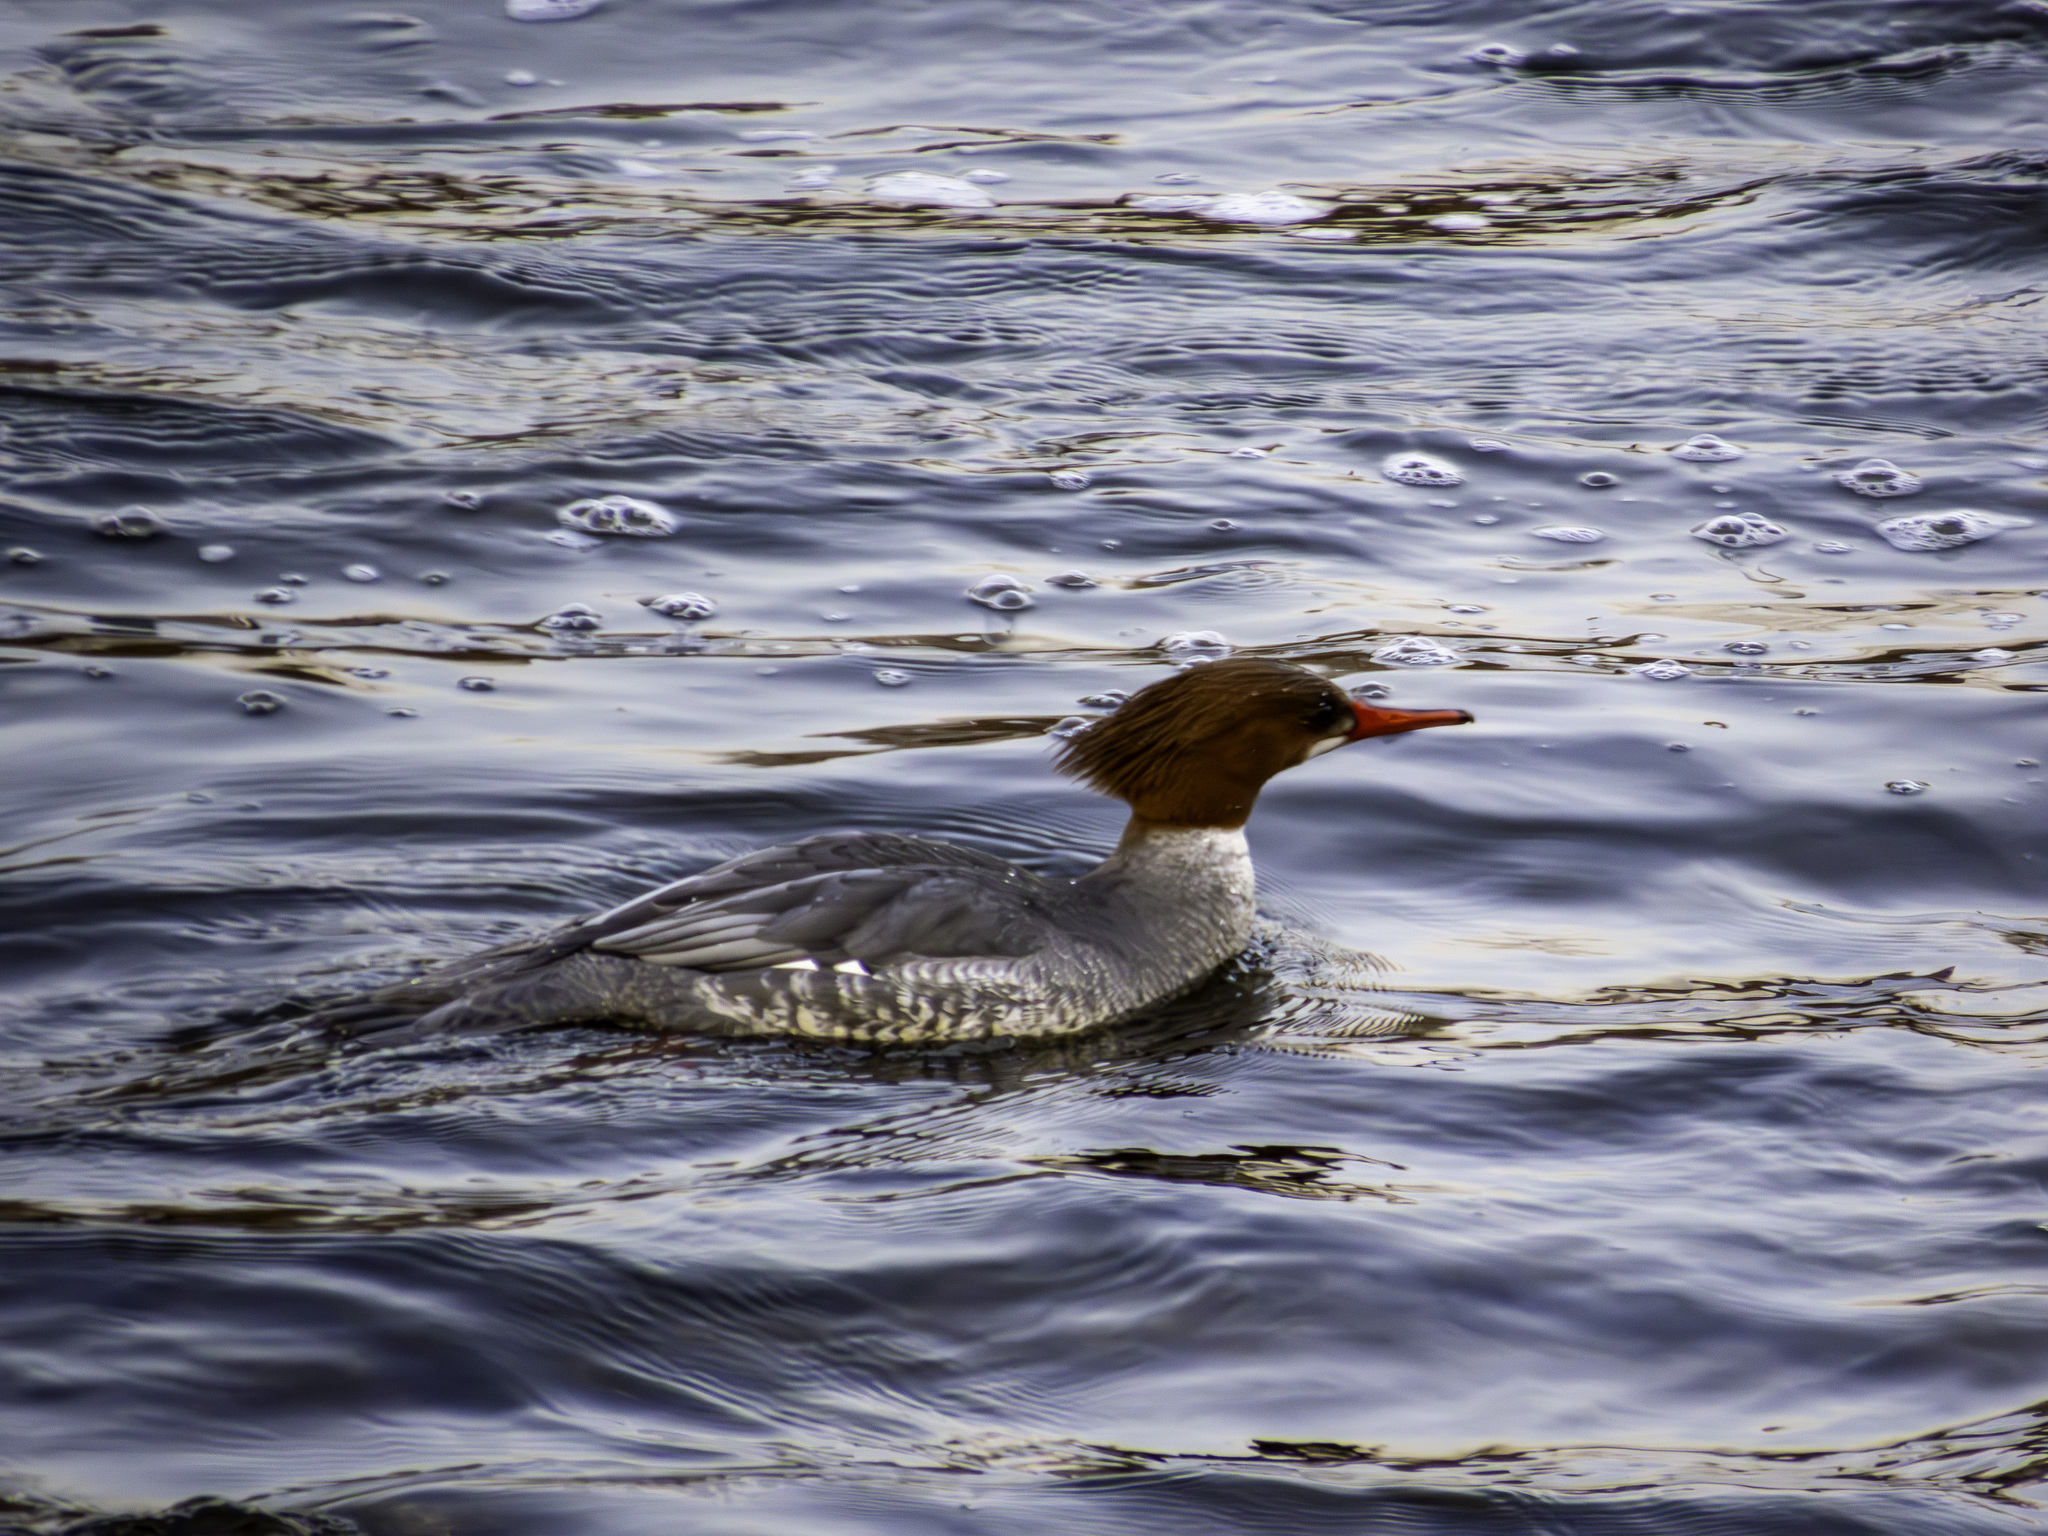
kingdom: Animalia
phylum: Chordata
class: Aves
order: Anseriformes
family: Anatidae
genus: Mergus
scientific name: Mergus merganser
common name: Common merganser
